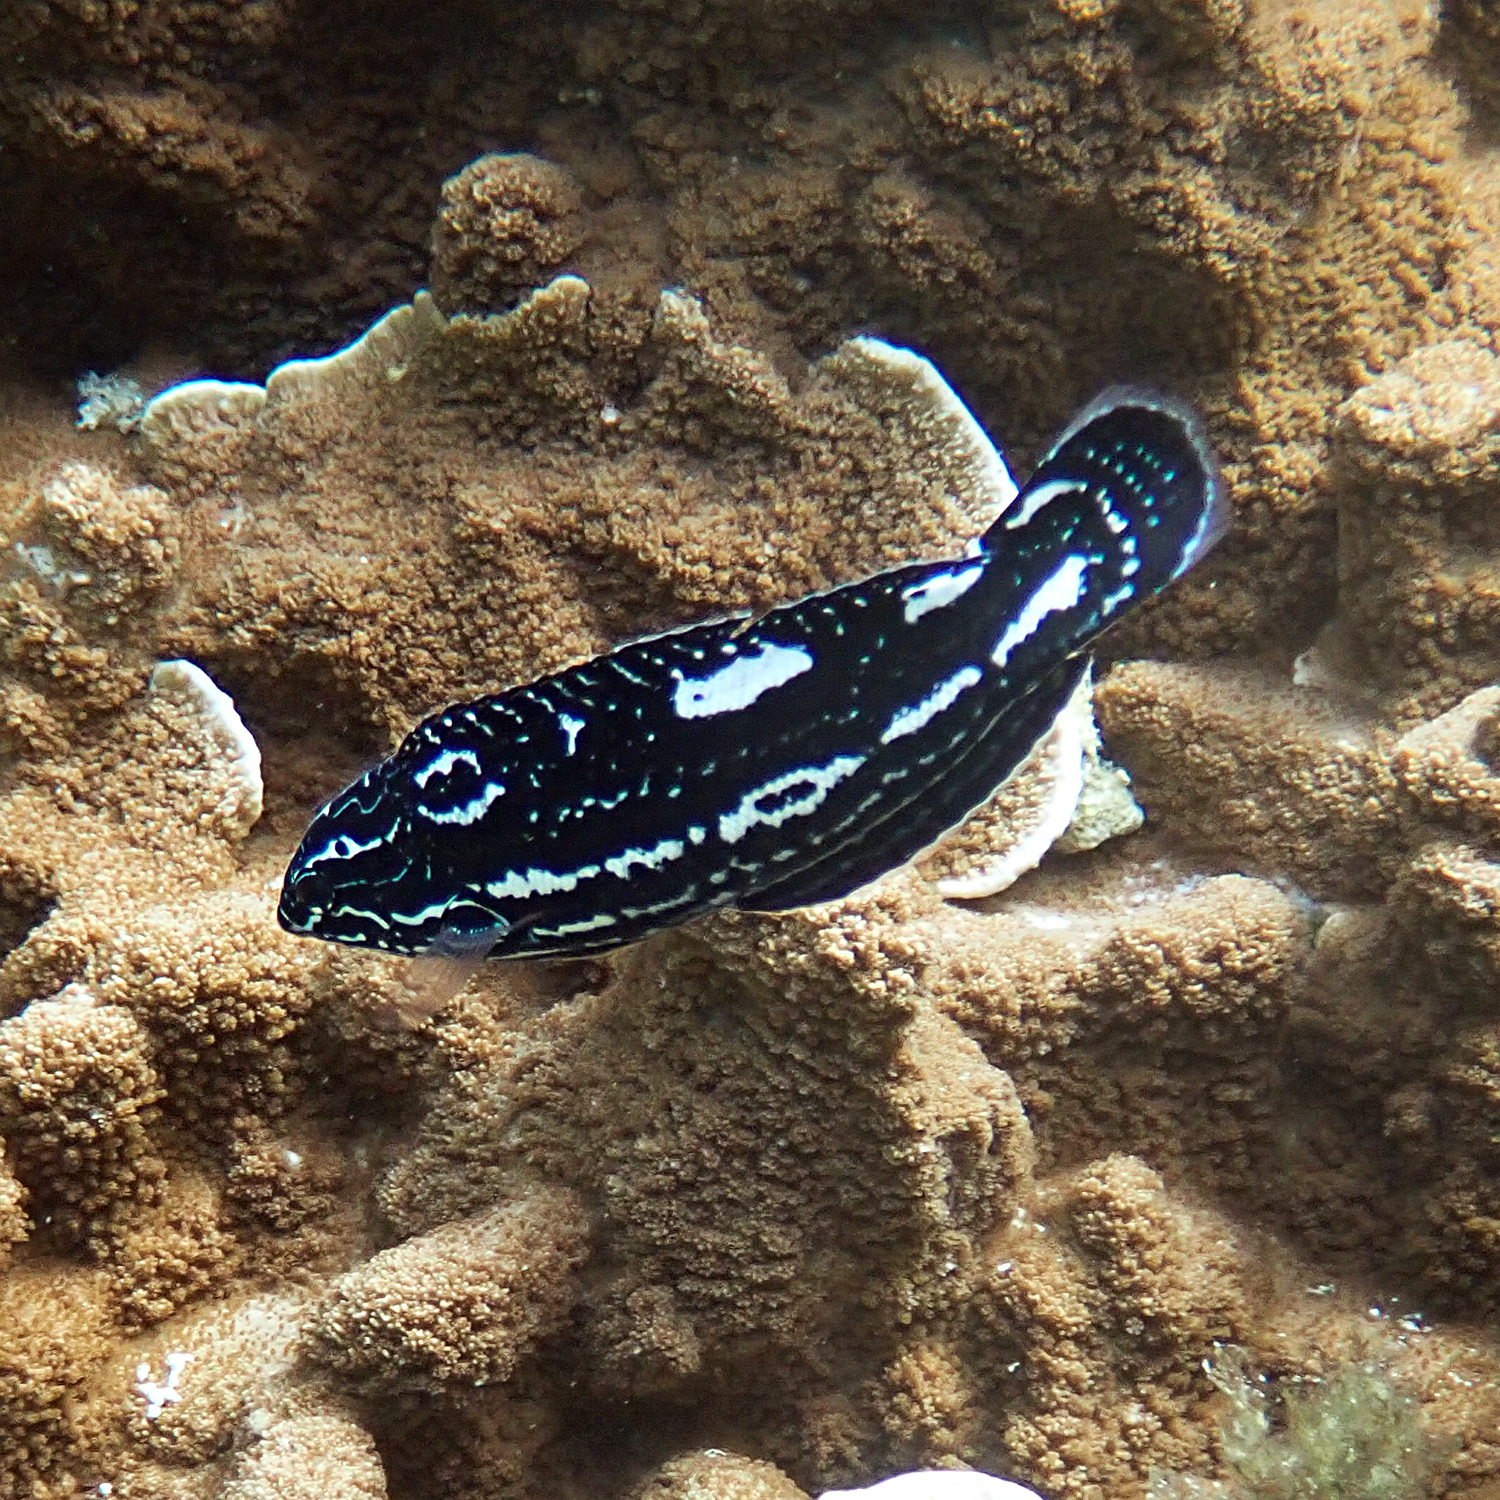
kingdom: Animalia
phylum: Chordata
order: Perciformes
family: Labridae
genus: Coris
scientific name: Coris bulbifrons
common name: Doubleheader
